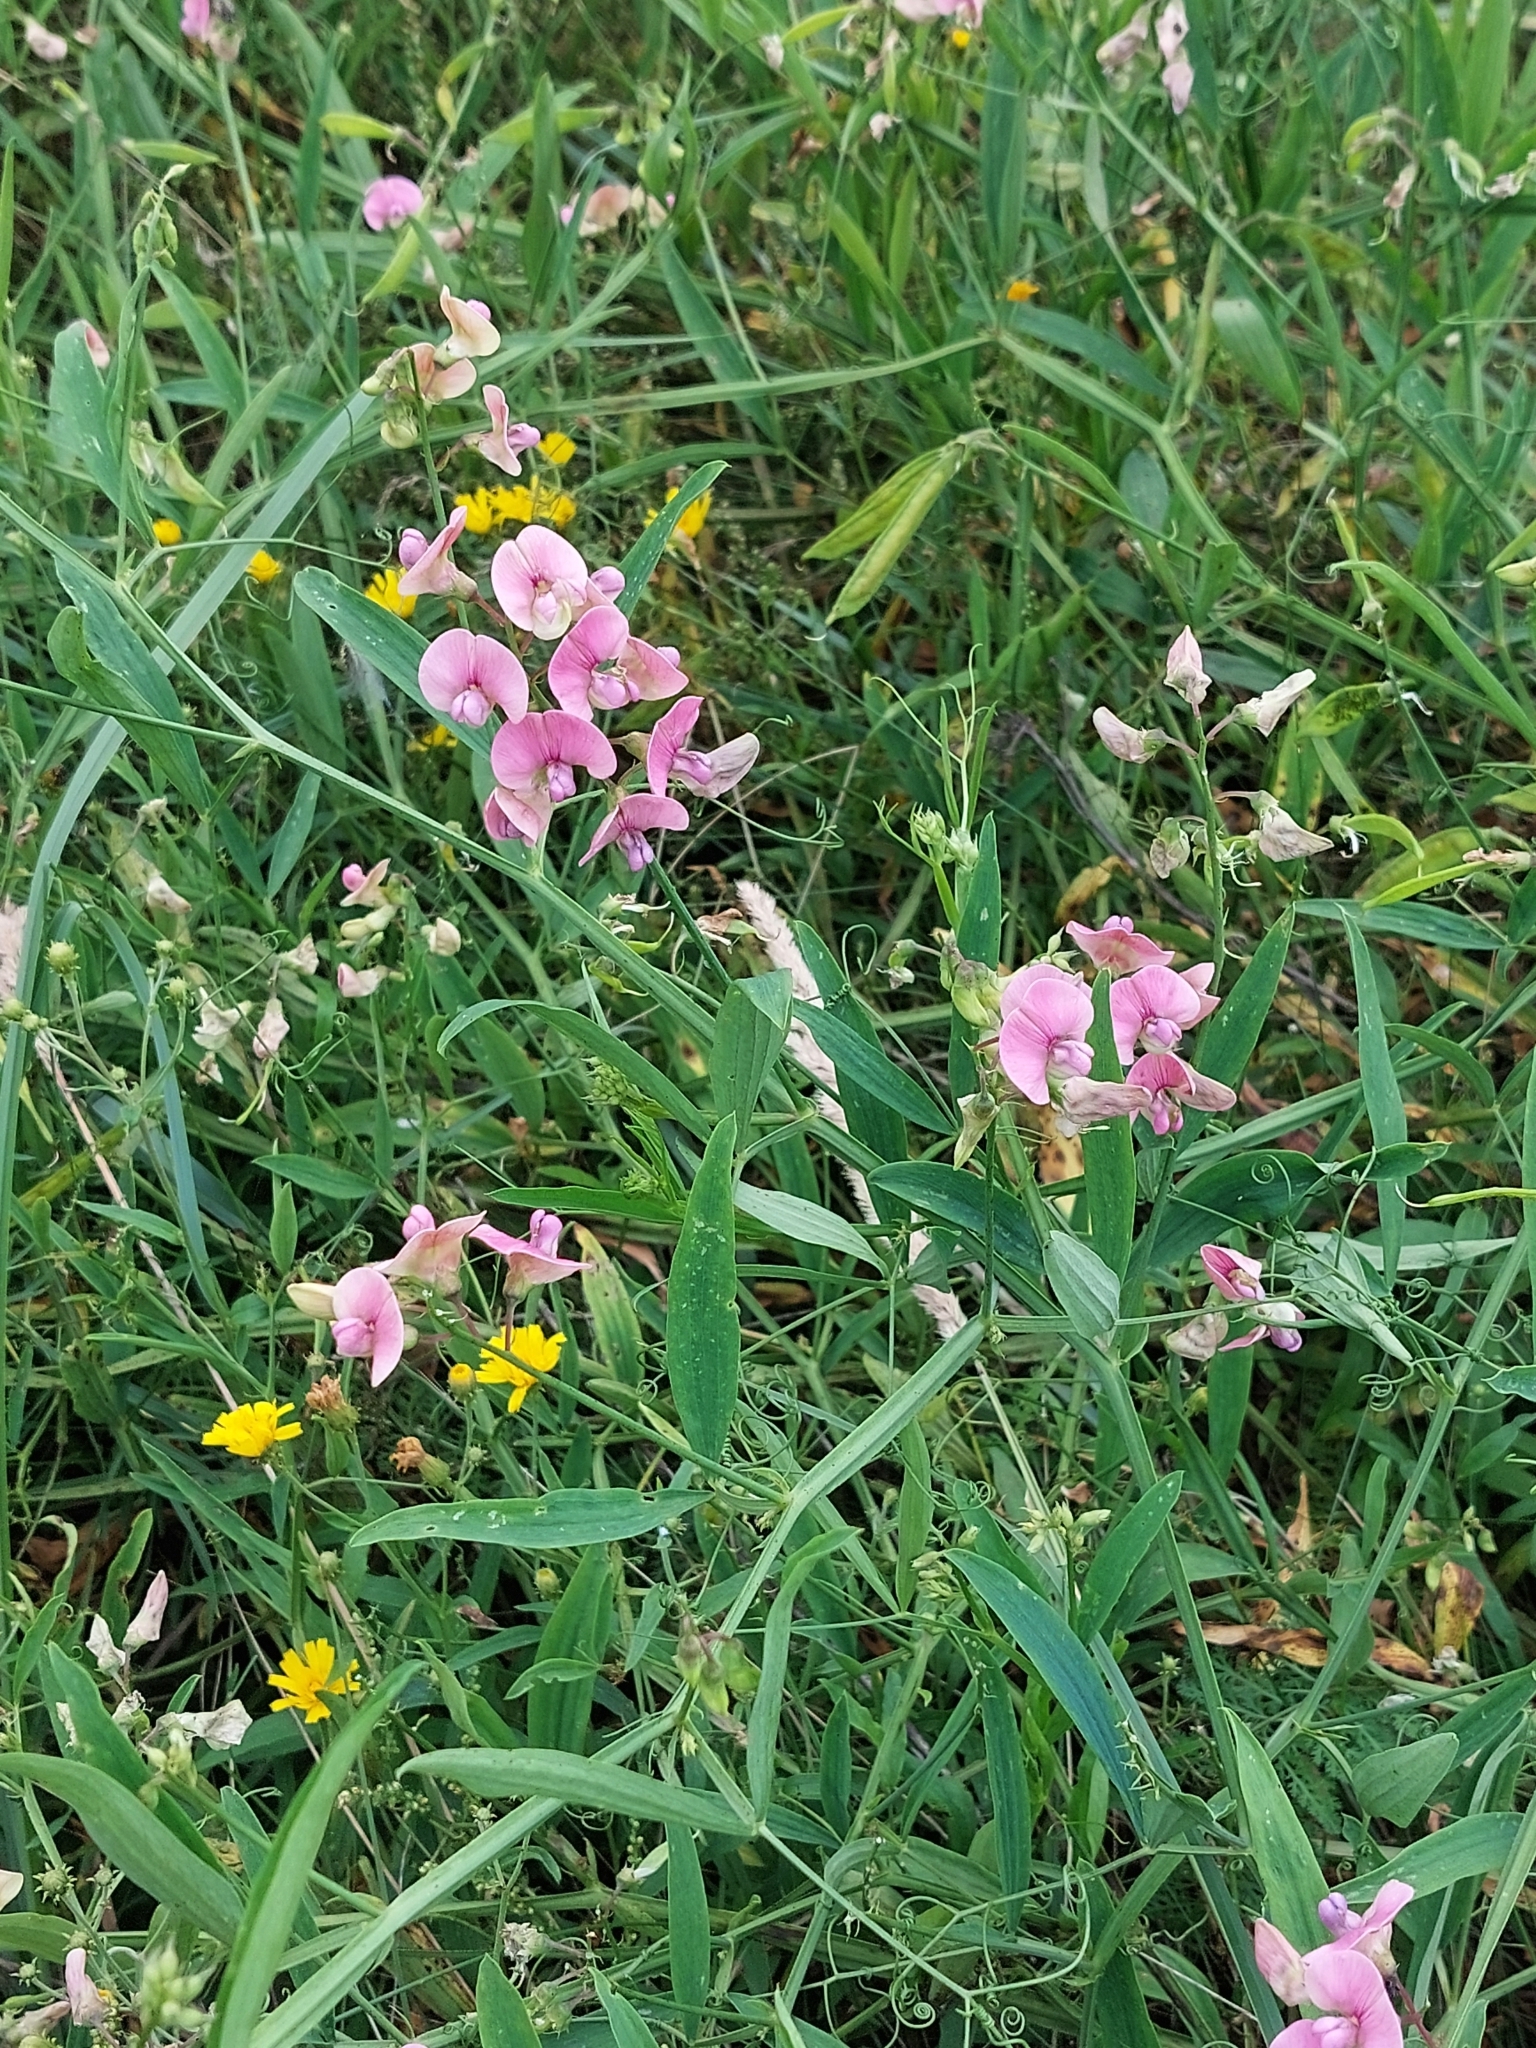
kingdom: Plantae
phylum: Tracheophyta
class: Magnoliopsida
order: Fabales
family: Fabaceae
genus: Lathyrus
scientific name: Lathyrus sylvestris
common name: Flat pea
